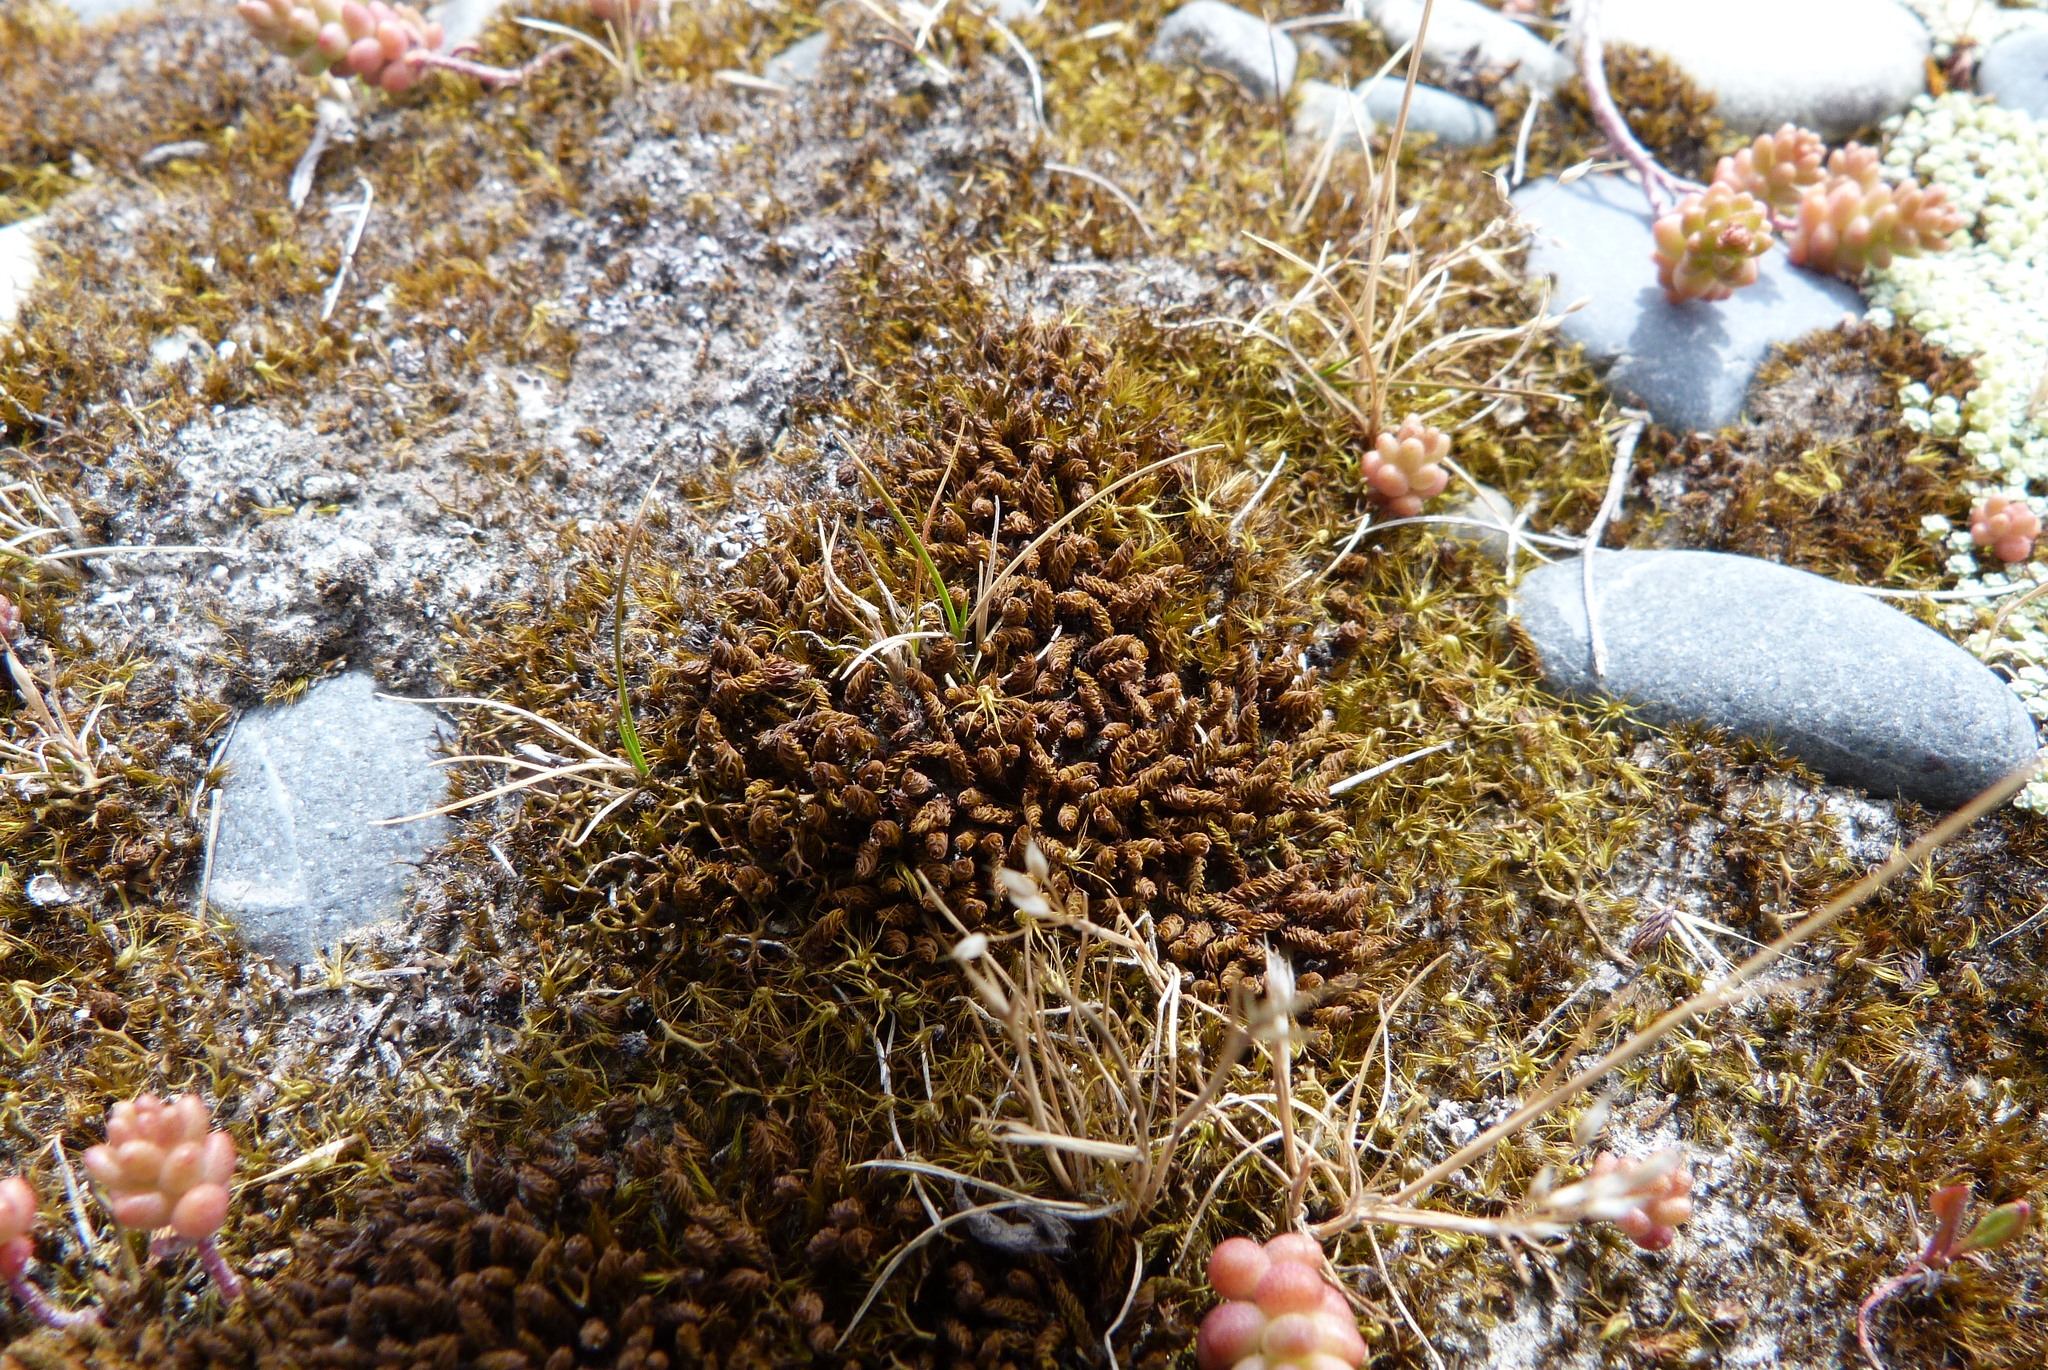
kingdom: Plantae
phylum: Bryophyta
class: Bryopsida
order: Pottiales
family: Pottiaceae
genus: Gertrudiella
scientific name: Gertrudiella torquata
